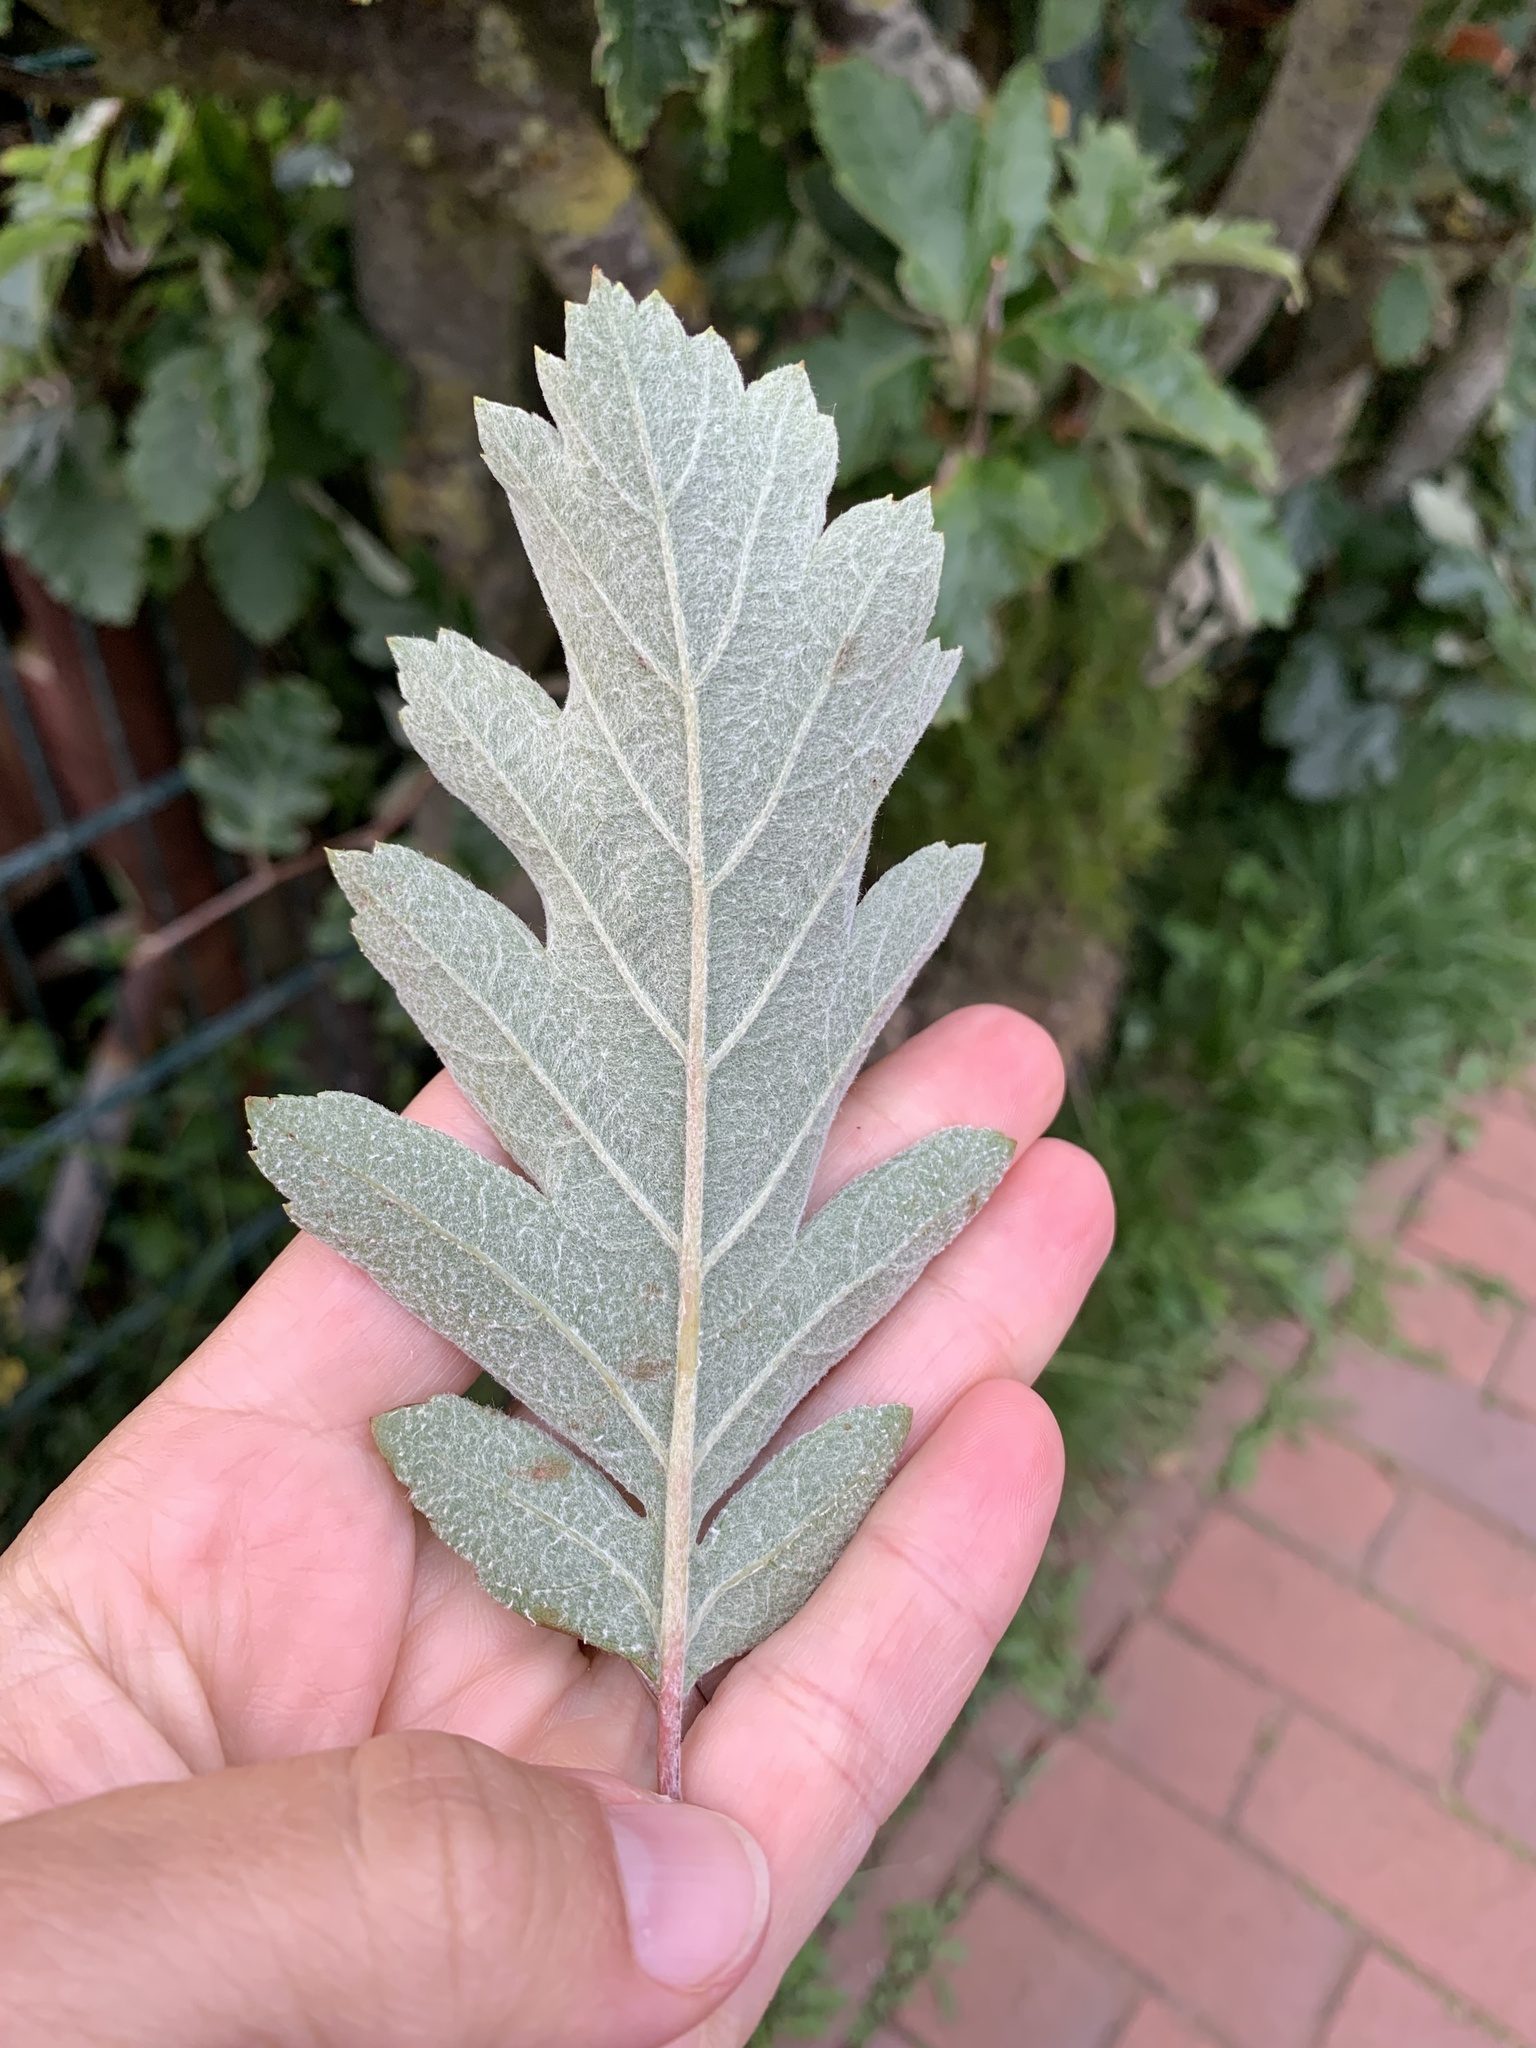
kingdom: Plantae
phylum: Tracheophyta
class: Magnoliopsida
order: Rosales
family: Rosaceae
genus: Scandosorbus
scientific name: Scandosorbus intermedia
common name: Swedish whitebeam
